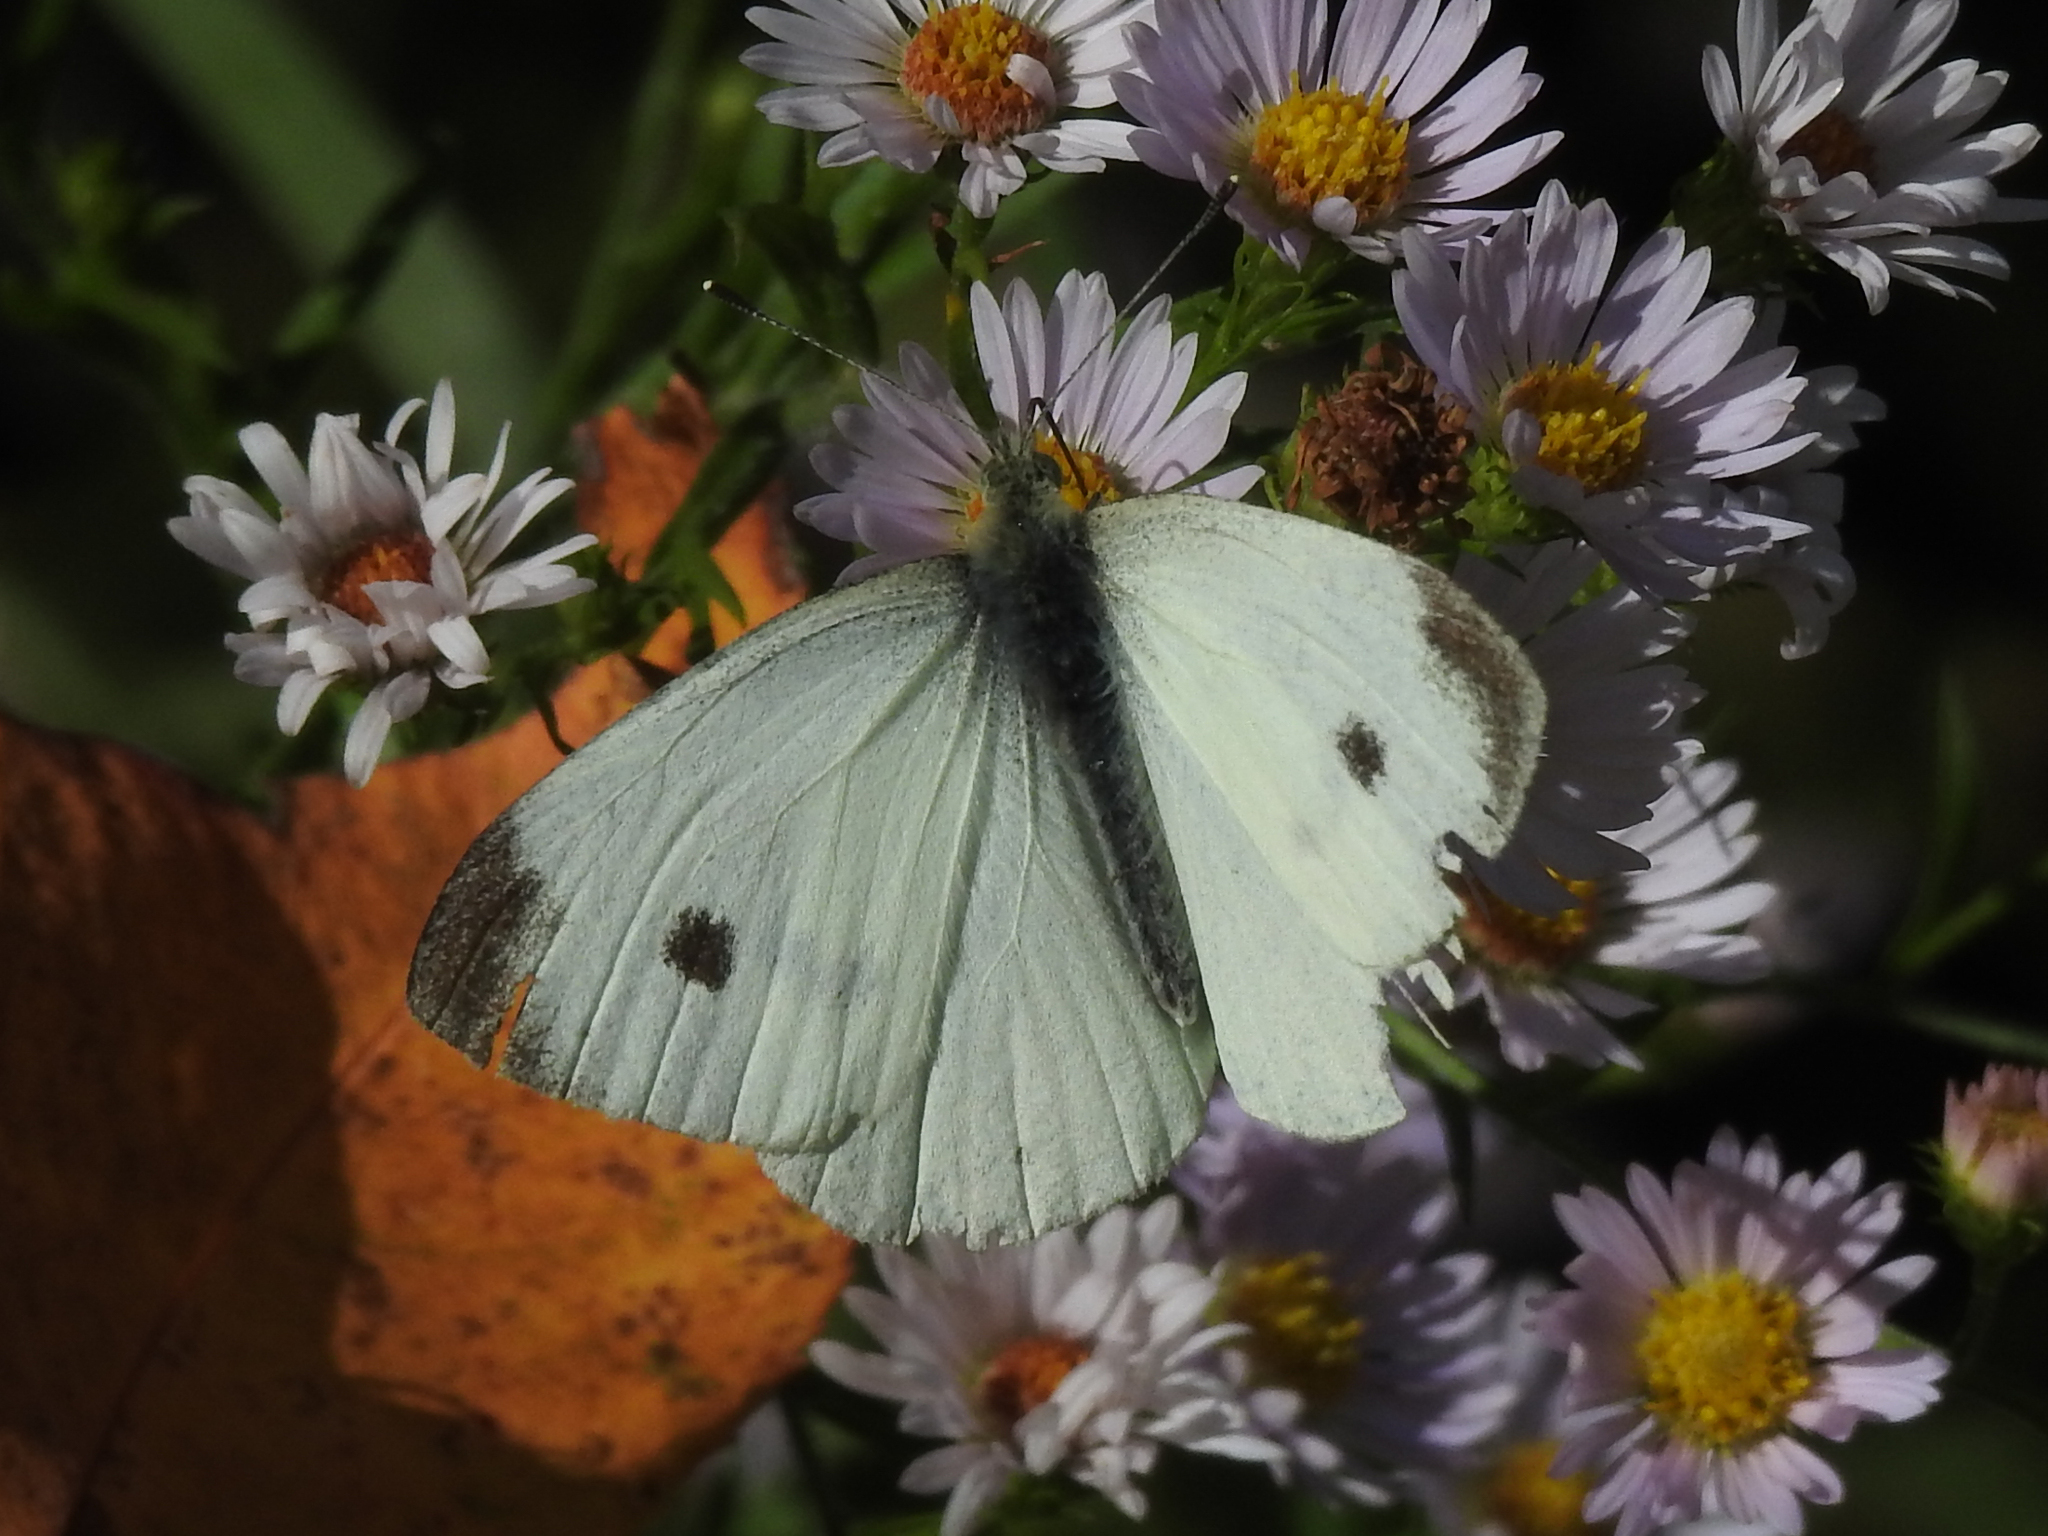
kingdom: Animalia
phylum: Arthropoda
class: Insecta
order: Lepidoptera
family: Pieridae
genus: Pieris
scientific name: Pieris rapae
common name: Small white
